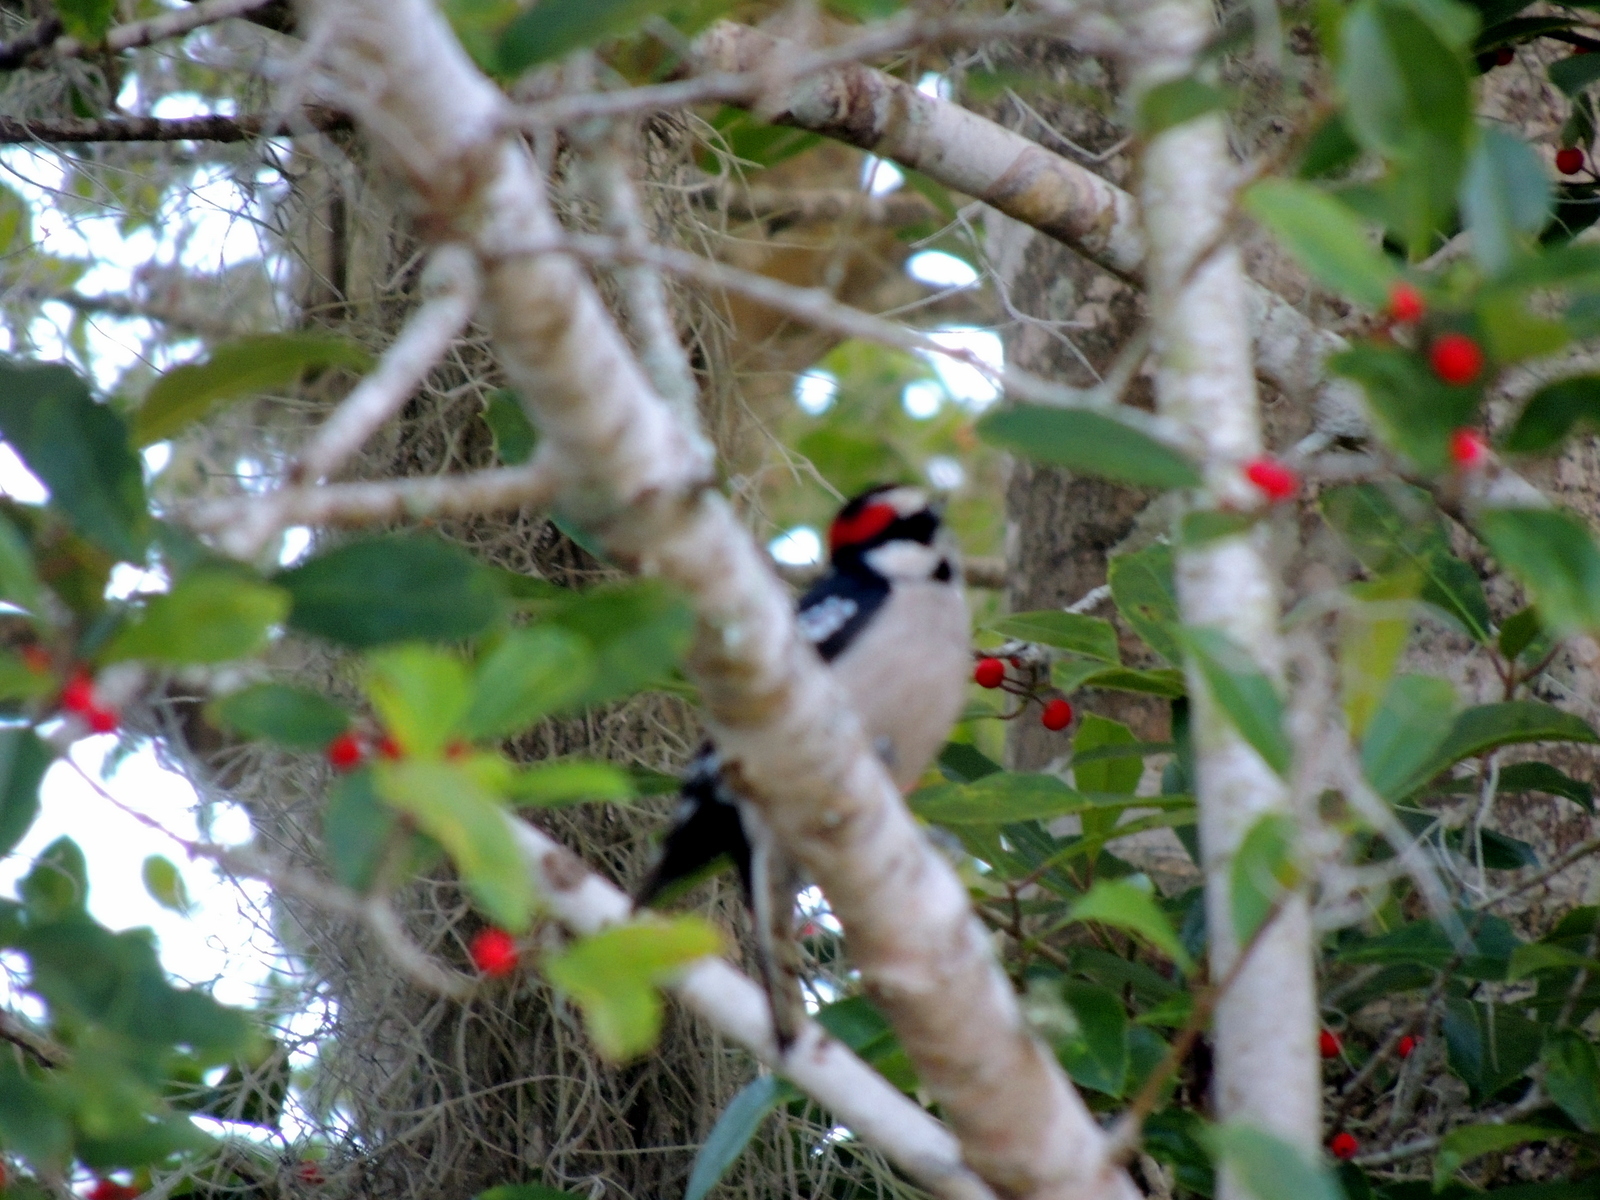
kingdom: Animalia
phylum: Chordata
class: Aves
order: Piciformes
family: Picidae
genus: Dryobates
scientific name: Dryobates pubescens
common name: Downy woodpecker
